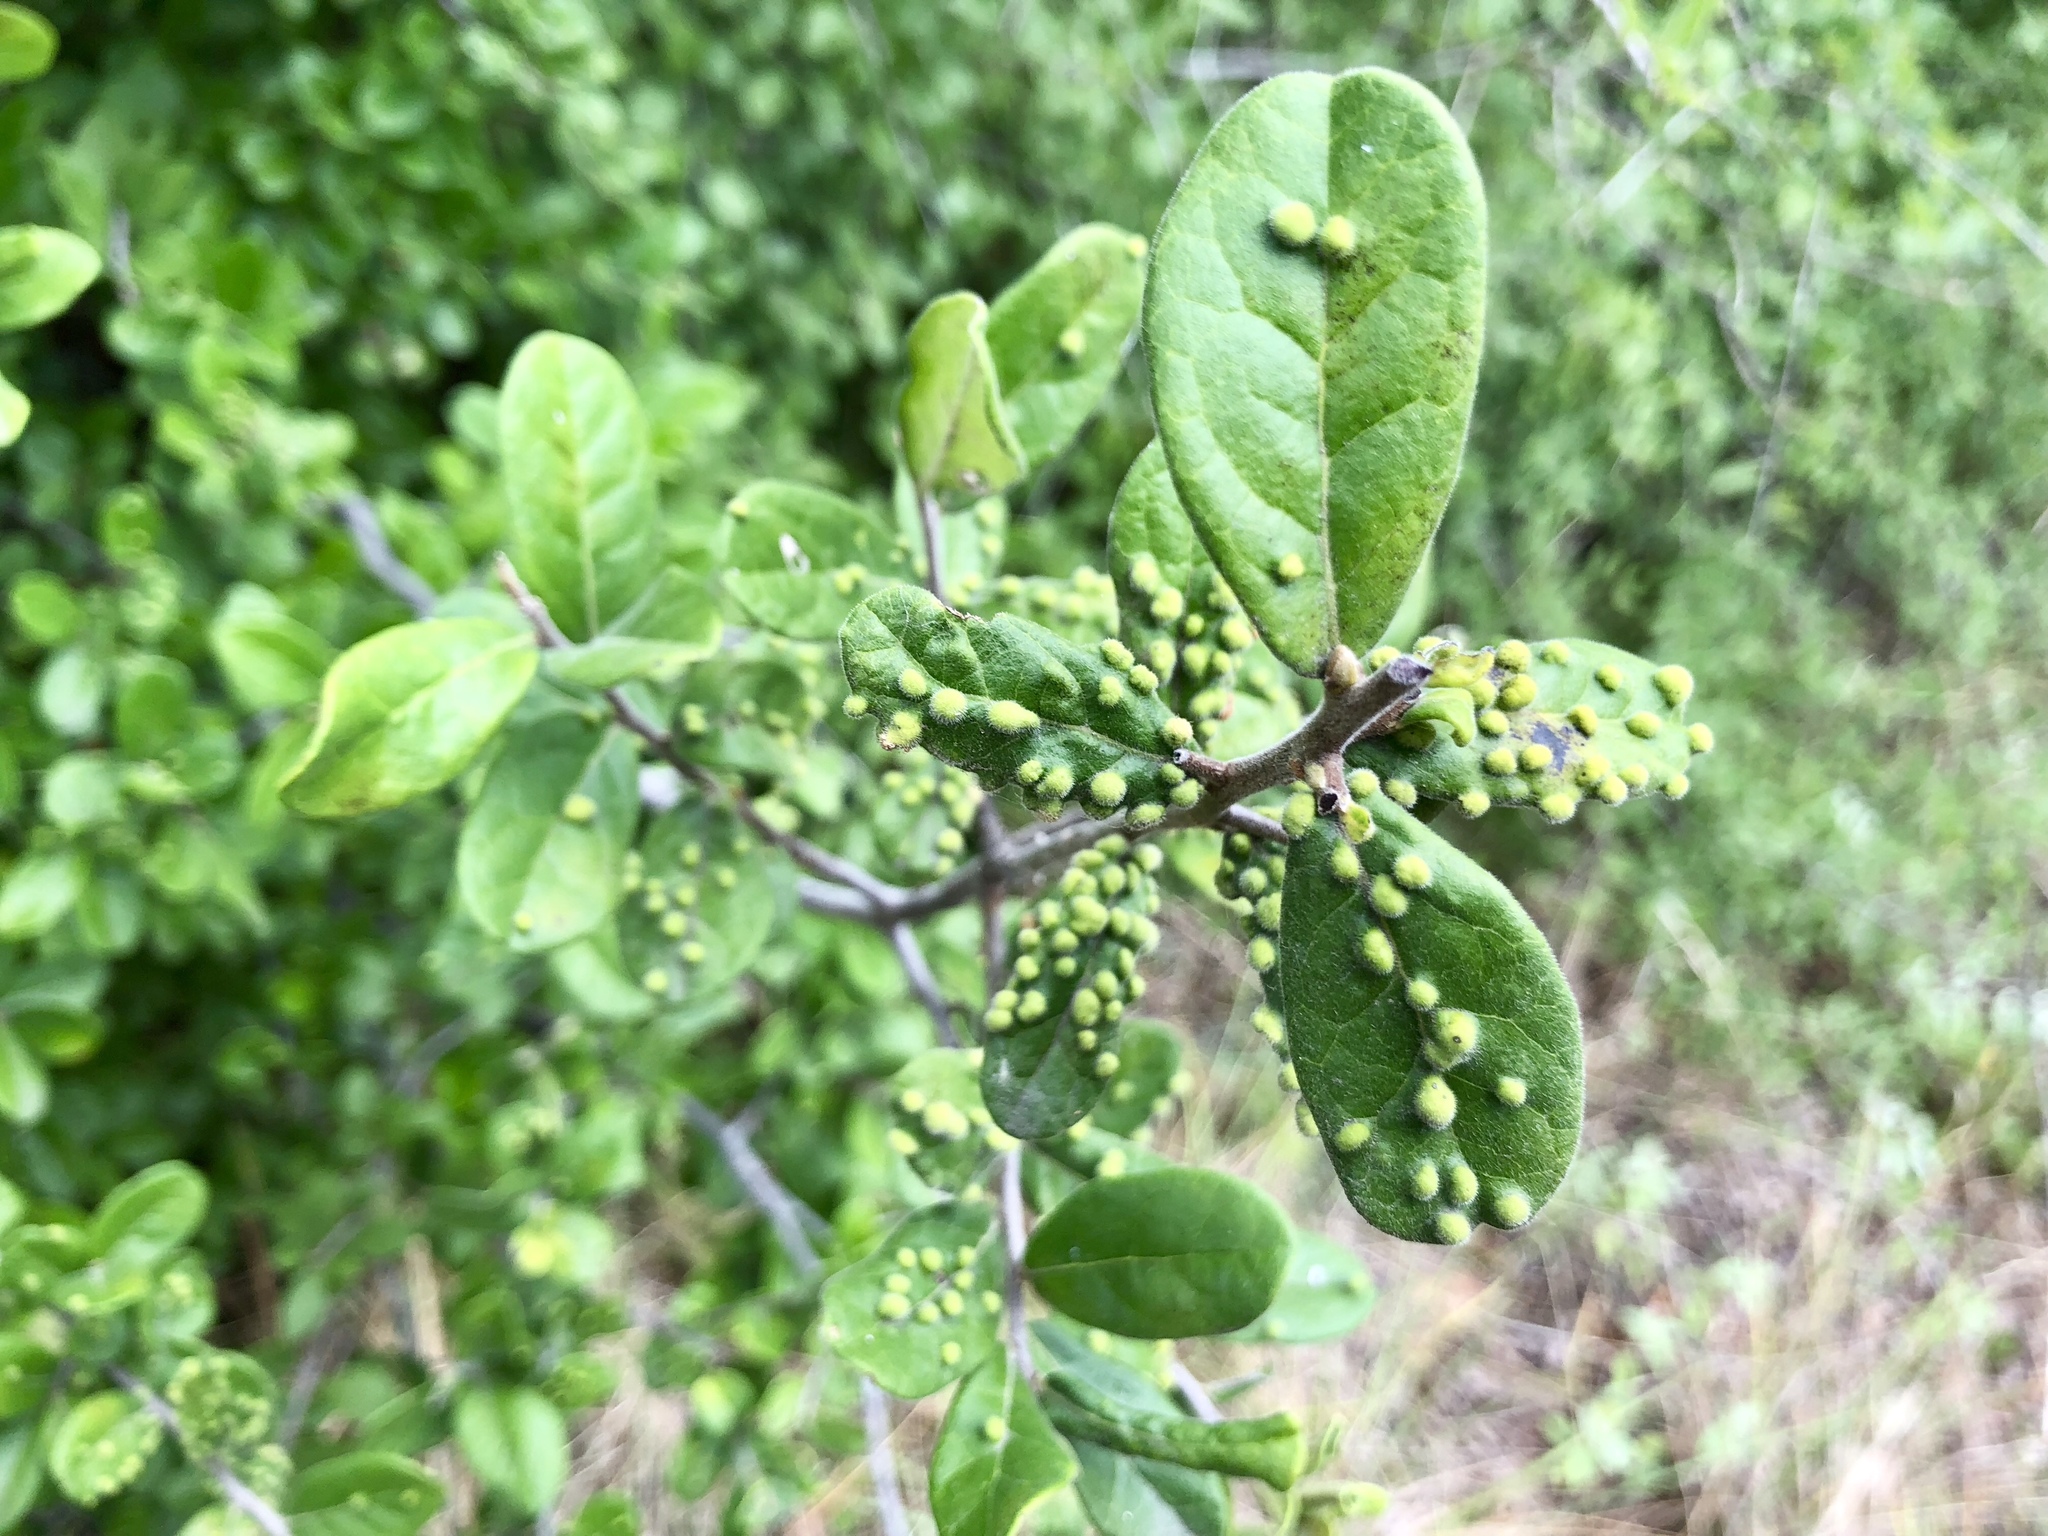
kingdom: Plantae
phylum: Tracheophyta
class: Magnoliopsida
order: Ericales
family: Sapotaceae
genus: Sideroxylon
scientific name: Sideroxylon lanuginosum
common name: Chittamwood
